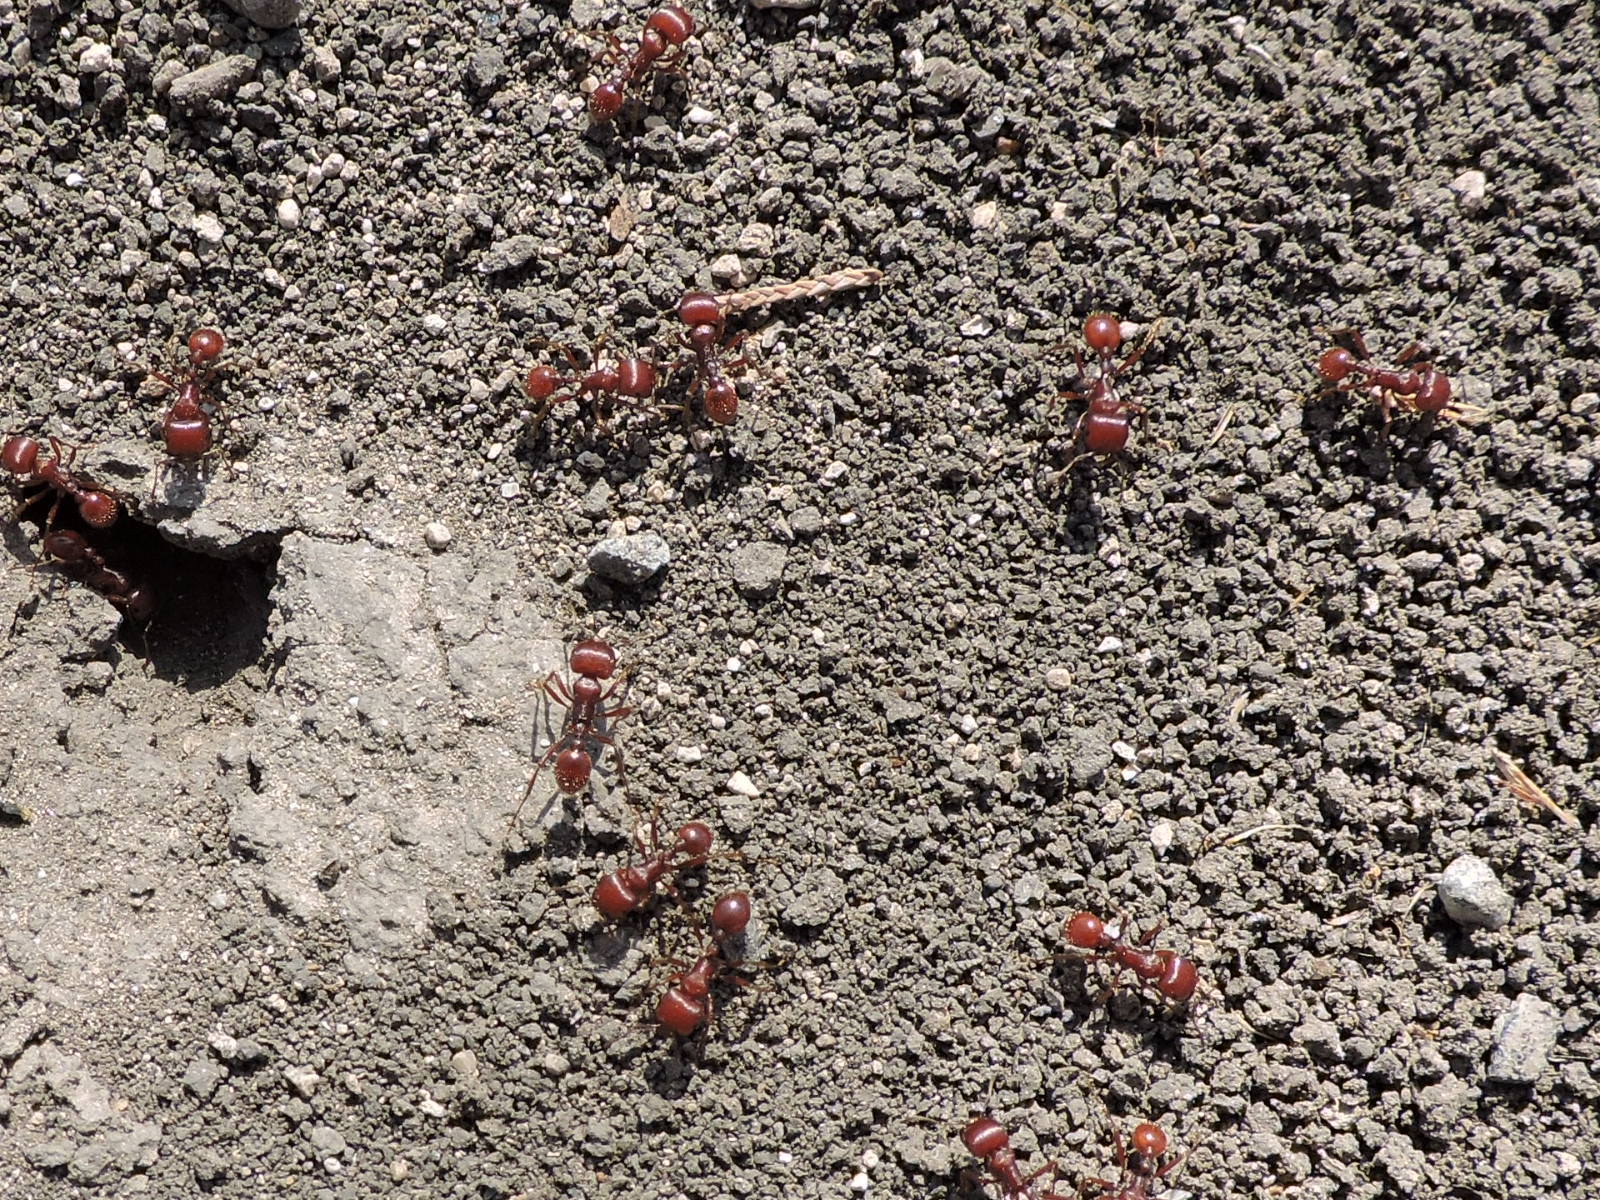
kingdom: Animalia
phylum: Arthropoda
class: Insecta
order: Hymenoptera
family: Formicidae
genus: Pogonomyrmex
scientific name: Pogonomyrmex barbatus
